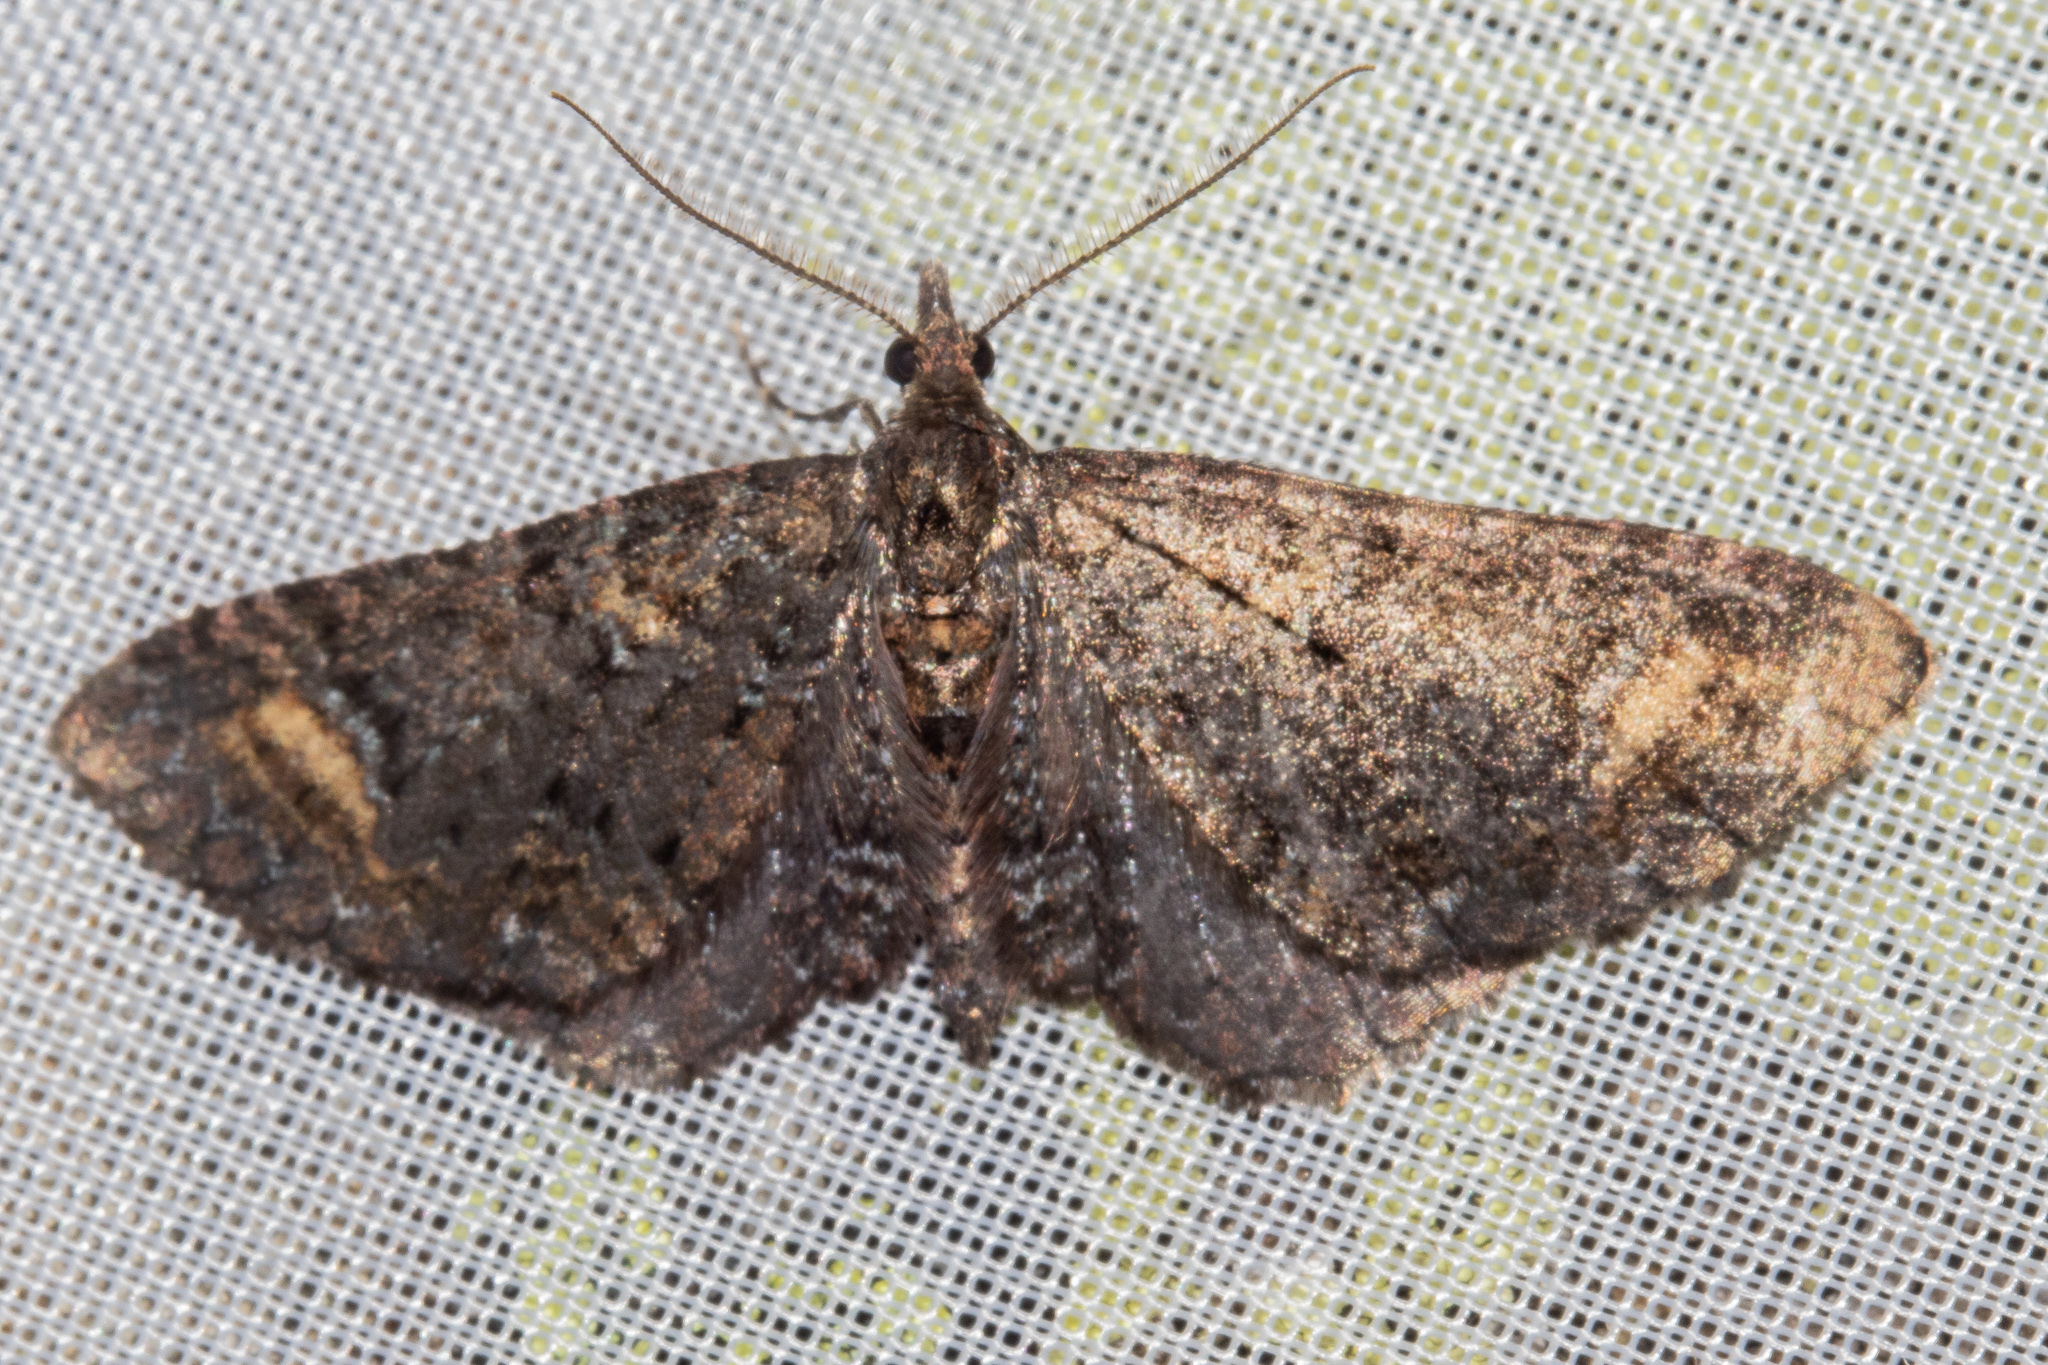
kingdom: Animalia
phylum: Arthropoda
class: Insecta
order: Lepidoptera
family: Geometridae
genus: Pasiphila
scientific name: Pasiphila rubella
